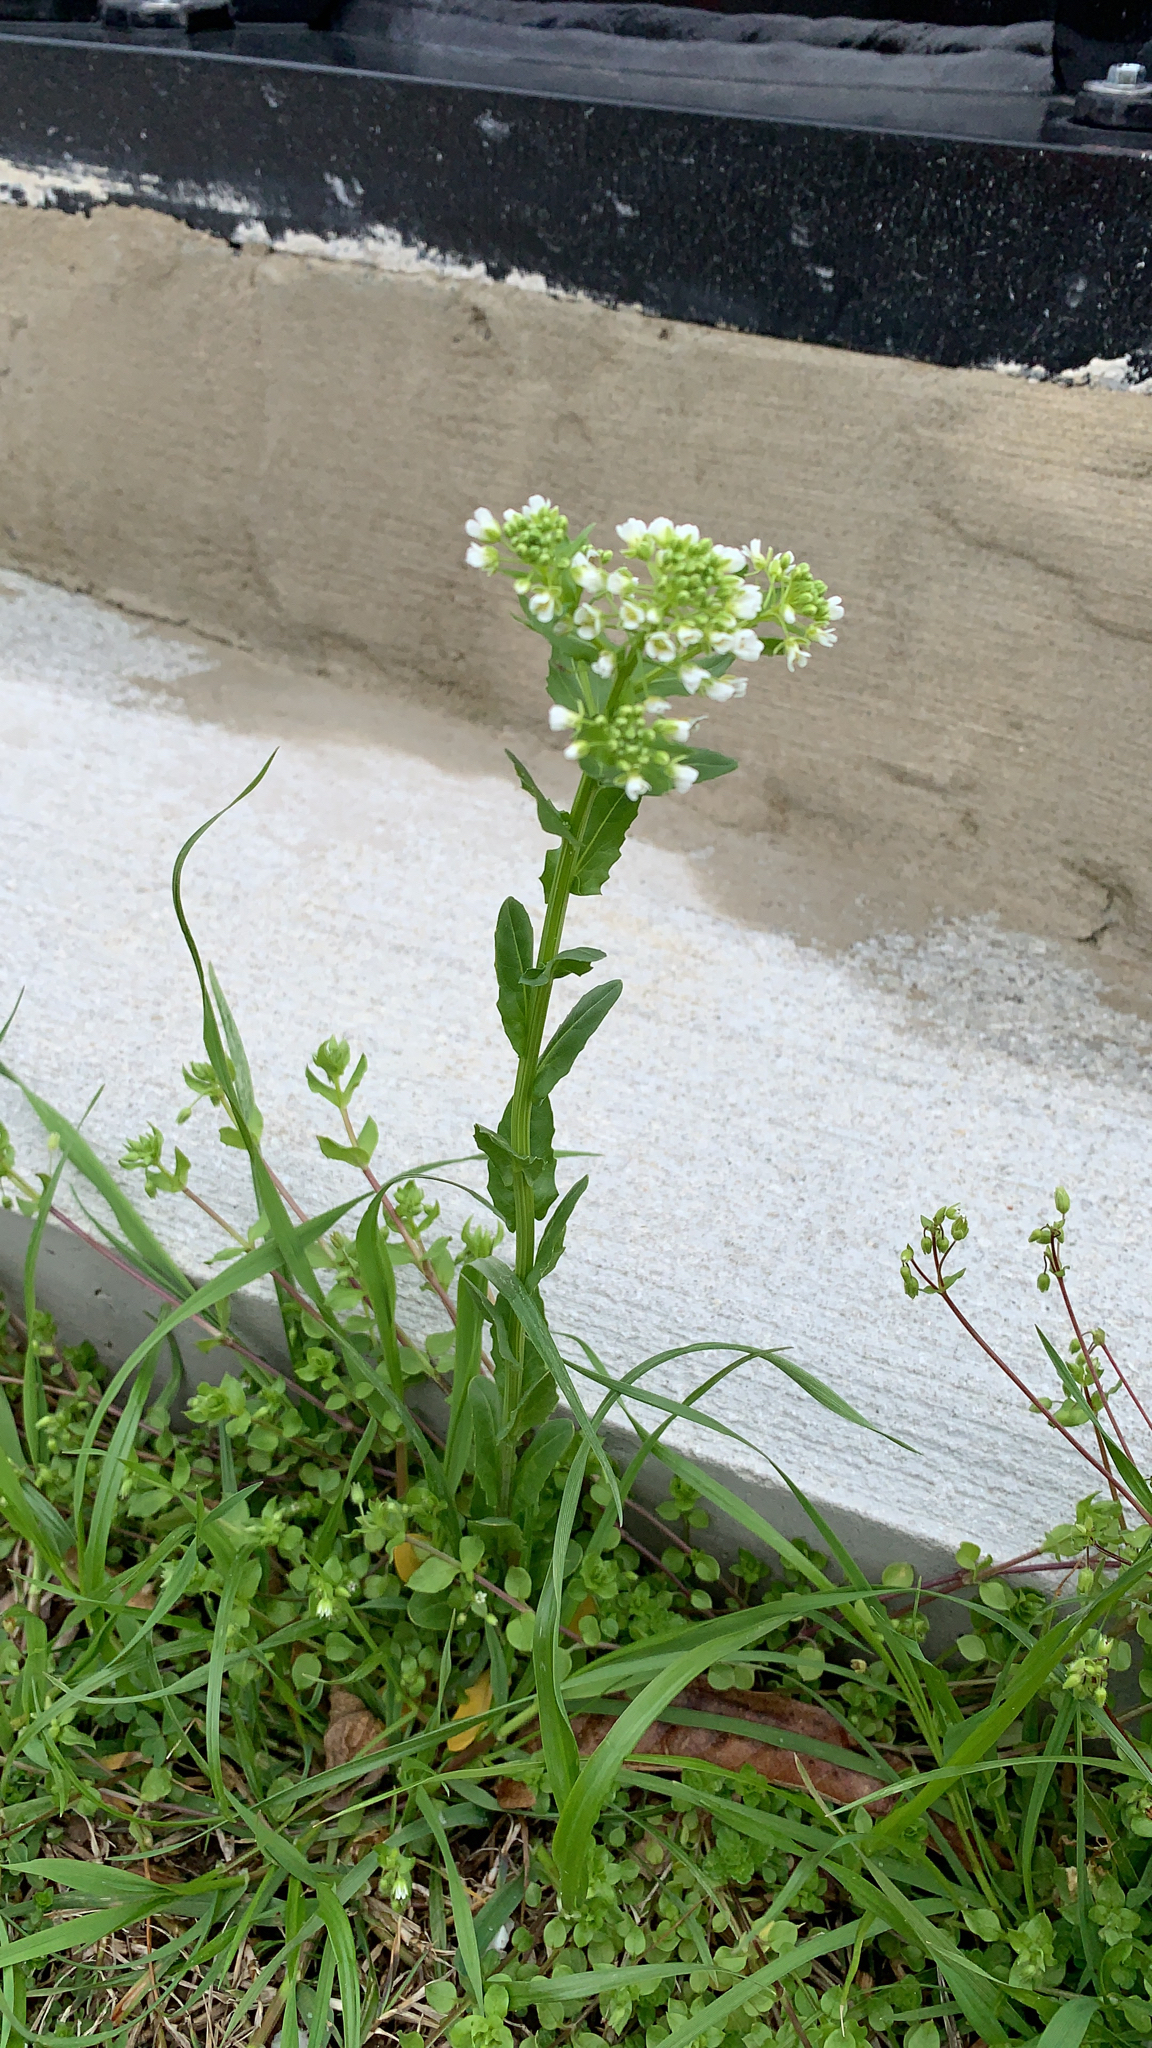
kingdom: Plantae
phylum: Tracheophyta
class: Magnoliopsida
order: Brassicales
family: Brassicaceae
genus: Thlaspi
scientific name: Thlaspi arvense
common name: Field pennycress
